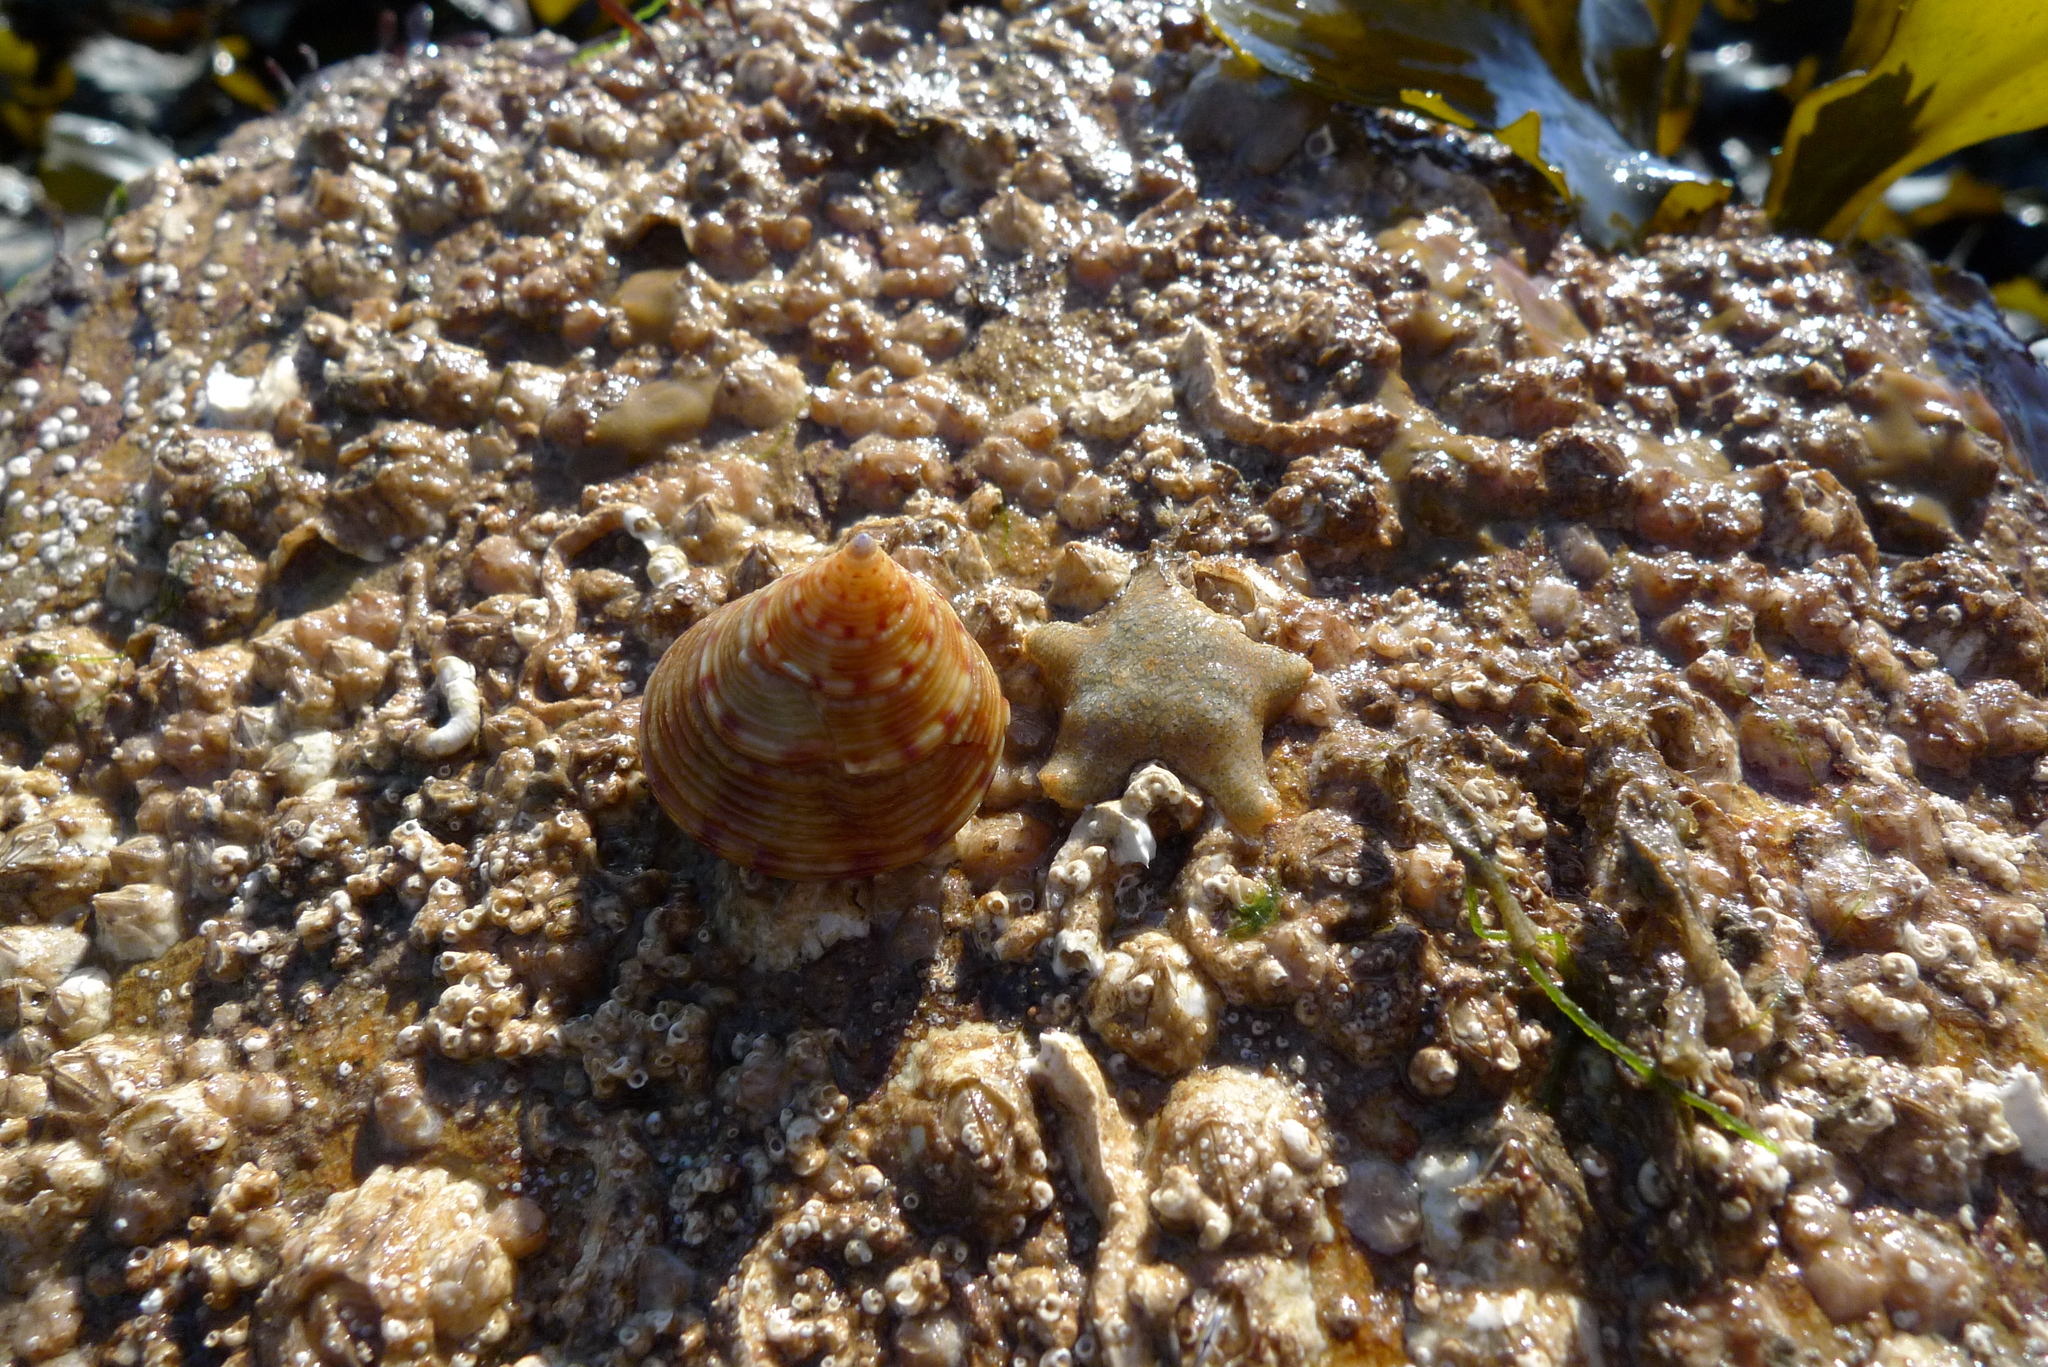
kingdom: Animalia
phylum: Echinodermata
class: Asteroidea
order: Valvatida
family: Asterinidae
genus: Asterina
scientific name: Asterina gibbosa
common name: Cushion star
